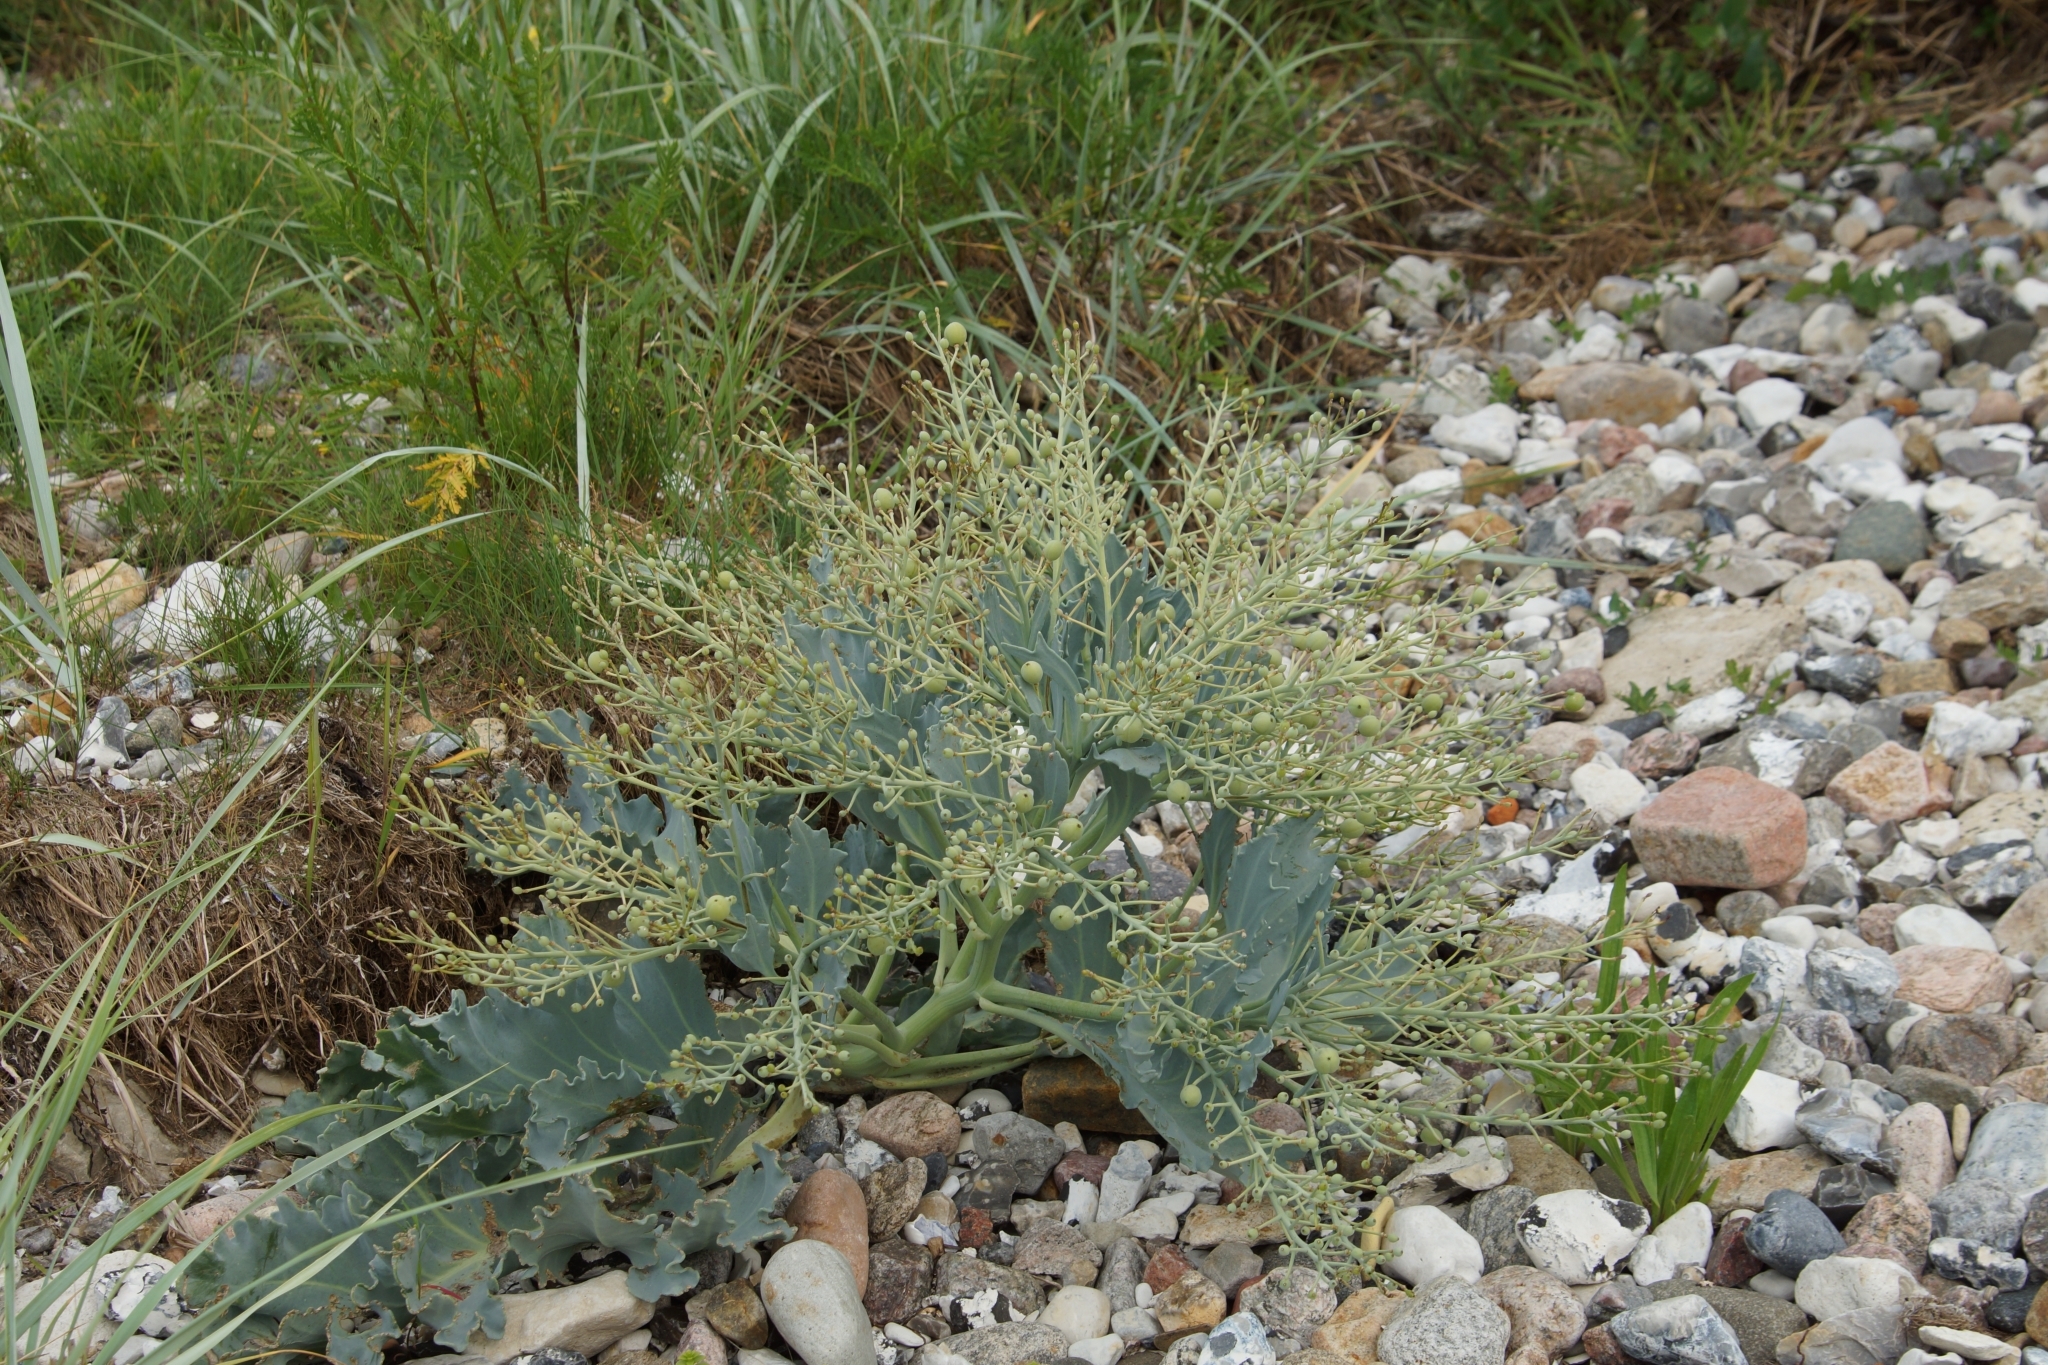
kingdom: Plantae
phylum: Tracheophyta
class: Magnoliopsida
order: Brassicales
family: Brassicaceae
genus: Crambe
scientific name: Crambe maritima
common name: Sea-kale
